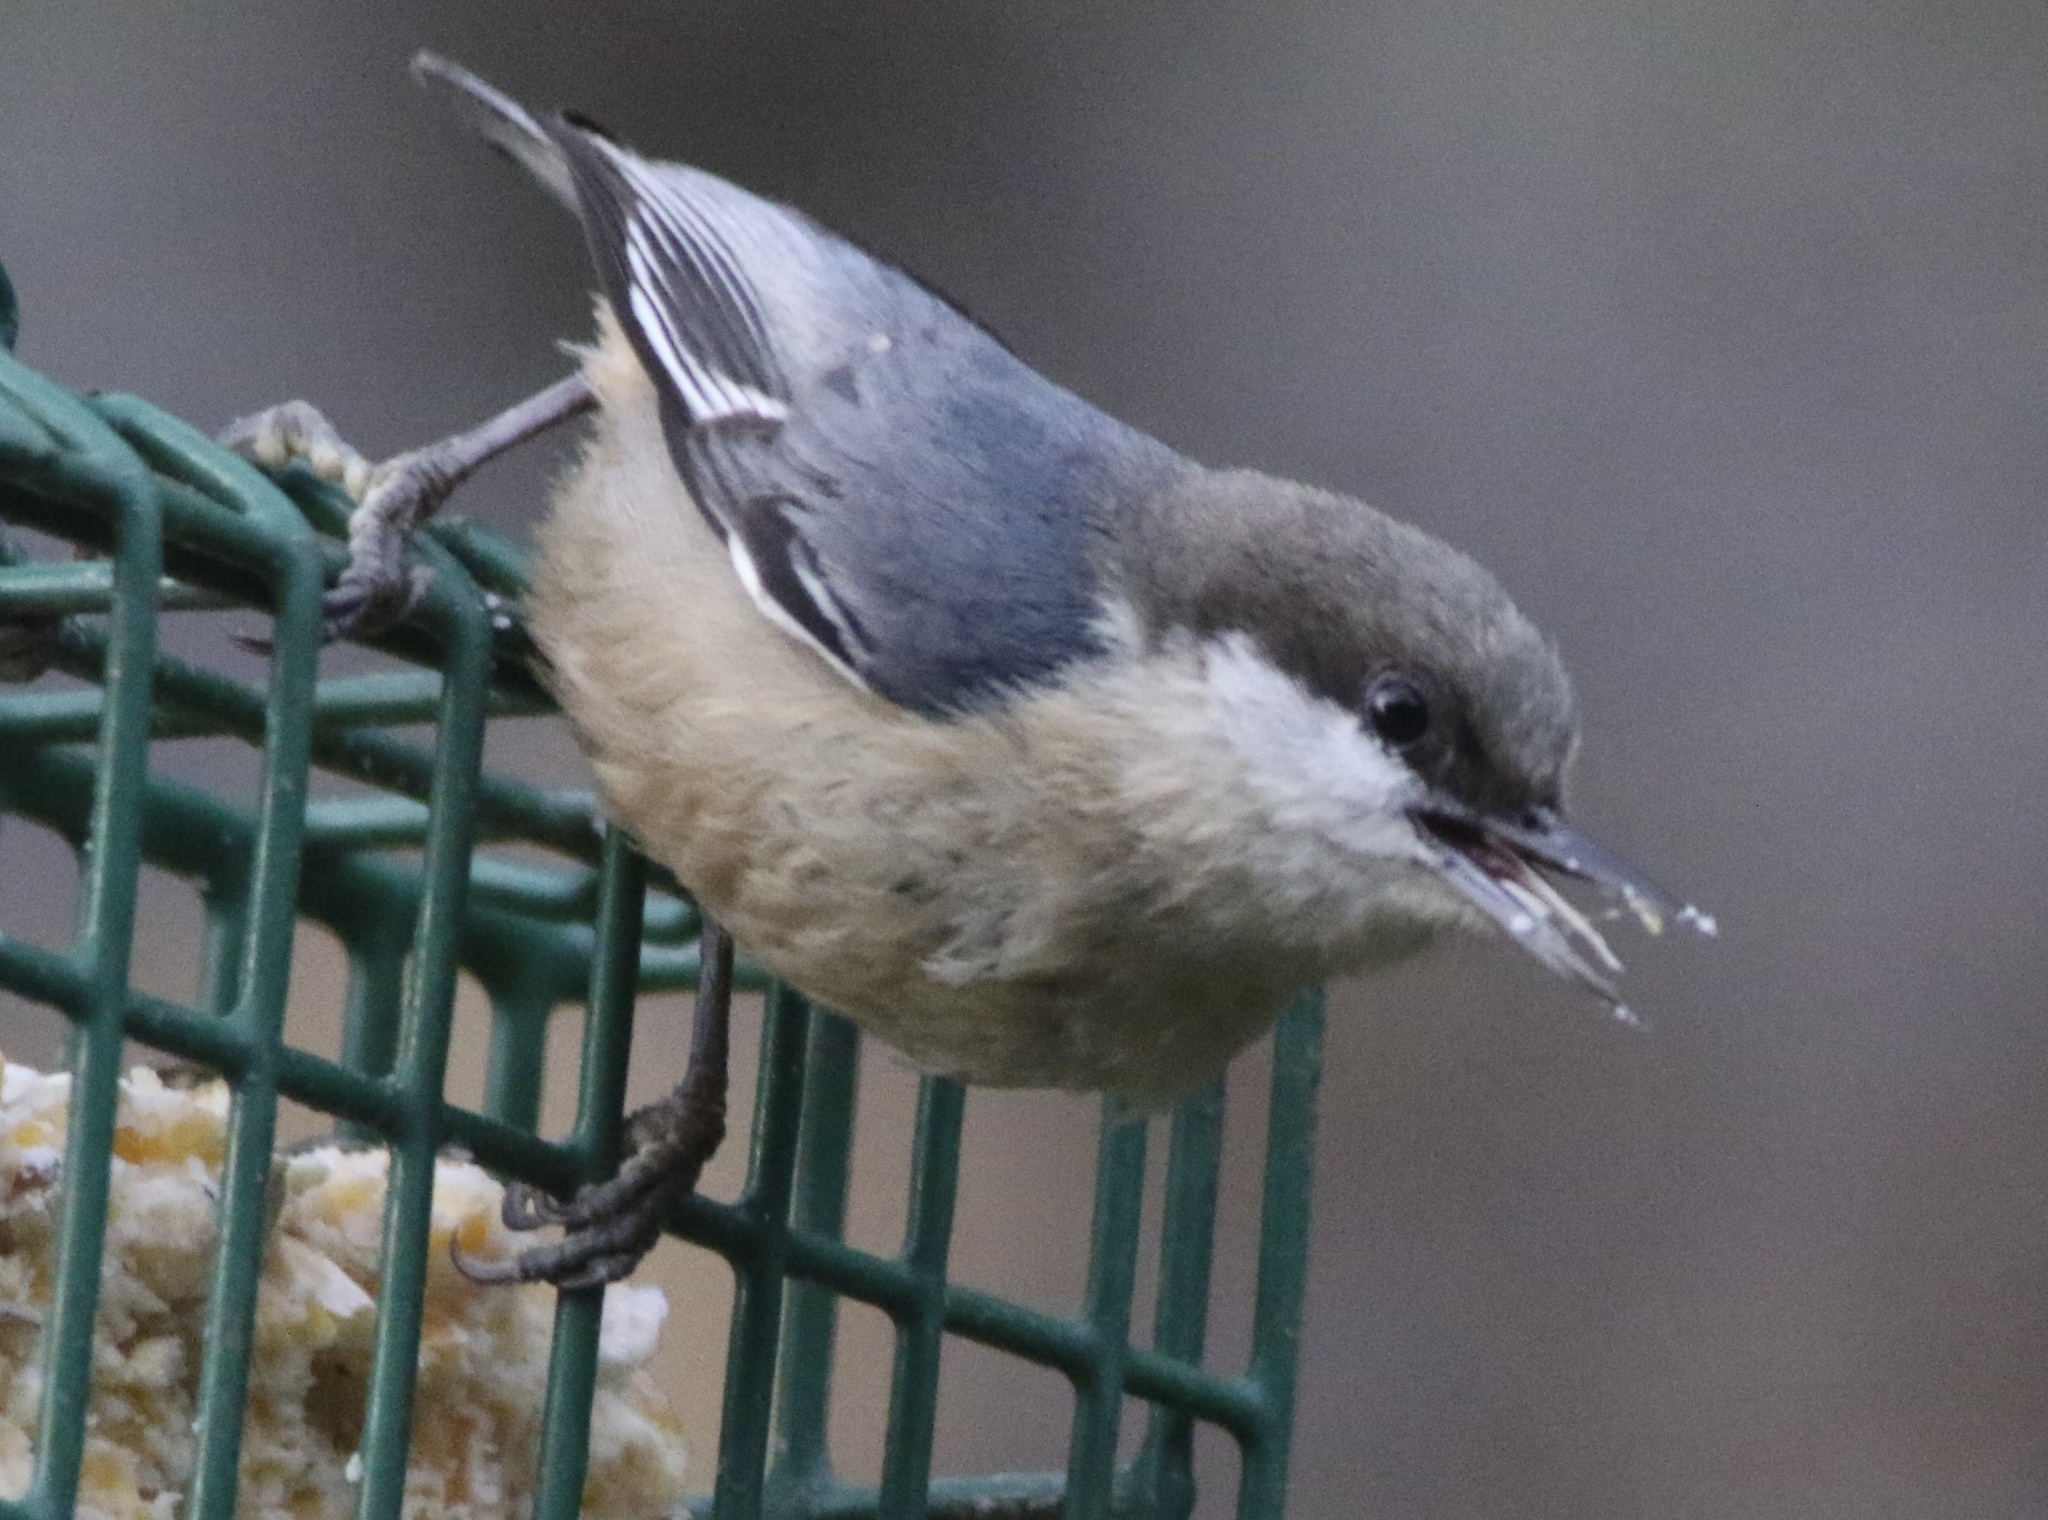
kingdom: Animalia
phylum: Chordata
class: Aves
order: Passeriformes
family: Sittidae
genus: Sitta
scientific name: Sitta pygmaea
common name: Pygmy nuthatch
